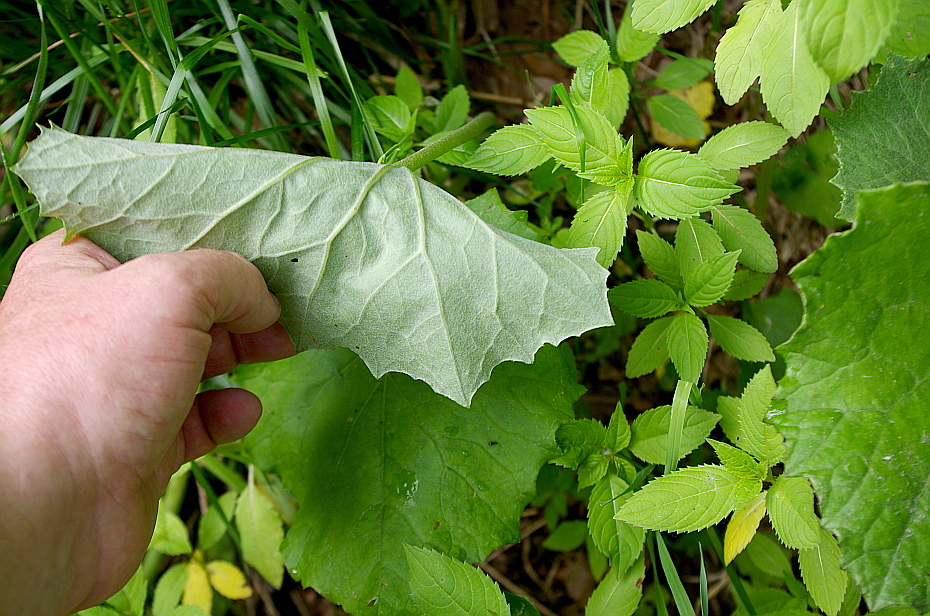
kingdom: Plantae
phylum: Tracheophyta
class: Magnoliopsida
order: Asterales
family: Asteraceae
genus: Tussilago
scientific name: Tussilago farfara
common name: Coltsfoot
